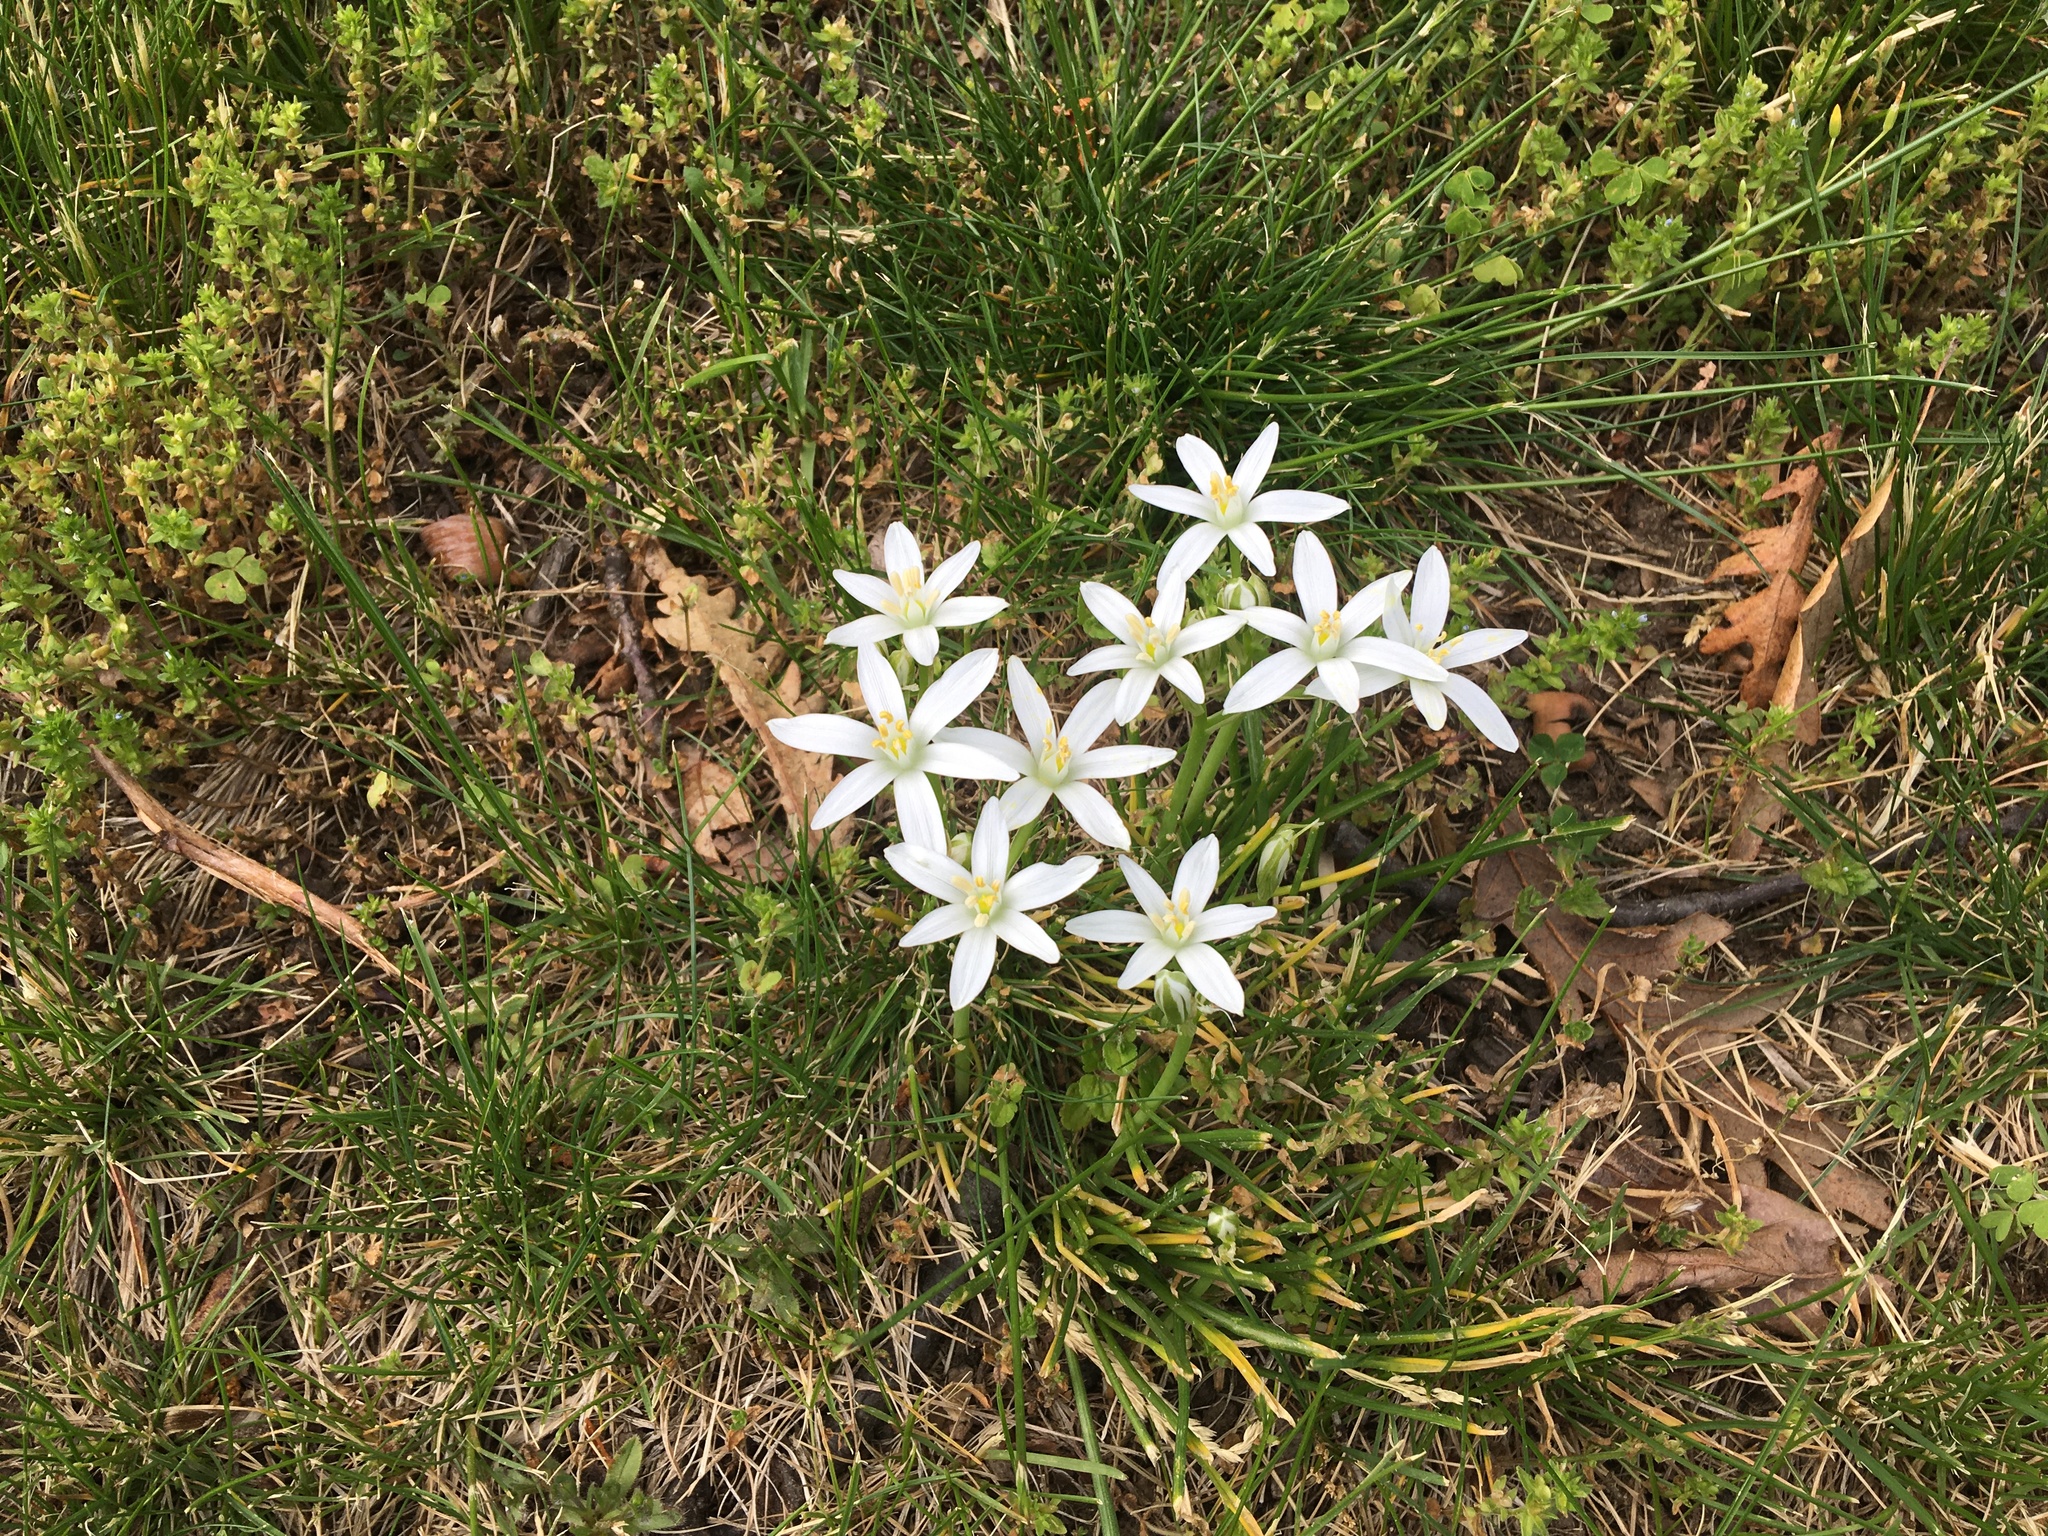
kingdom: Plantae
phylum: Tracheophyta
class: Liliopsida
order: Asparagales
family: Asparagaceae
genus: Ornithogalum
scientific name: Ornithogalum umbellatum
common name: Garden star-of-bethlehem
